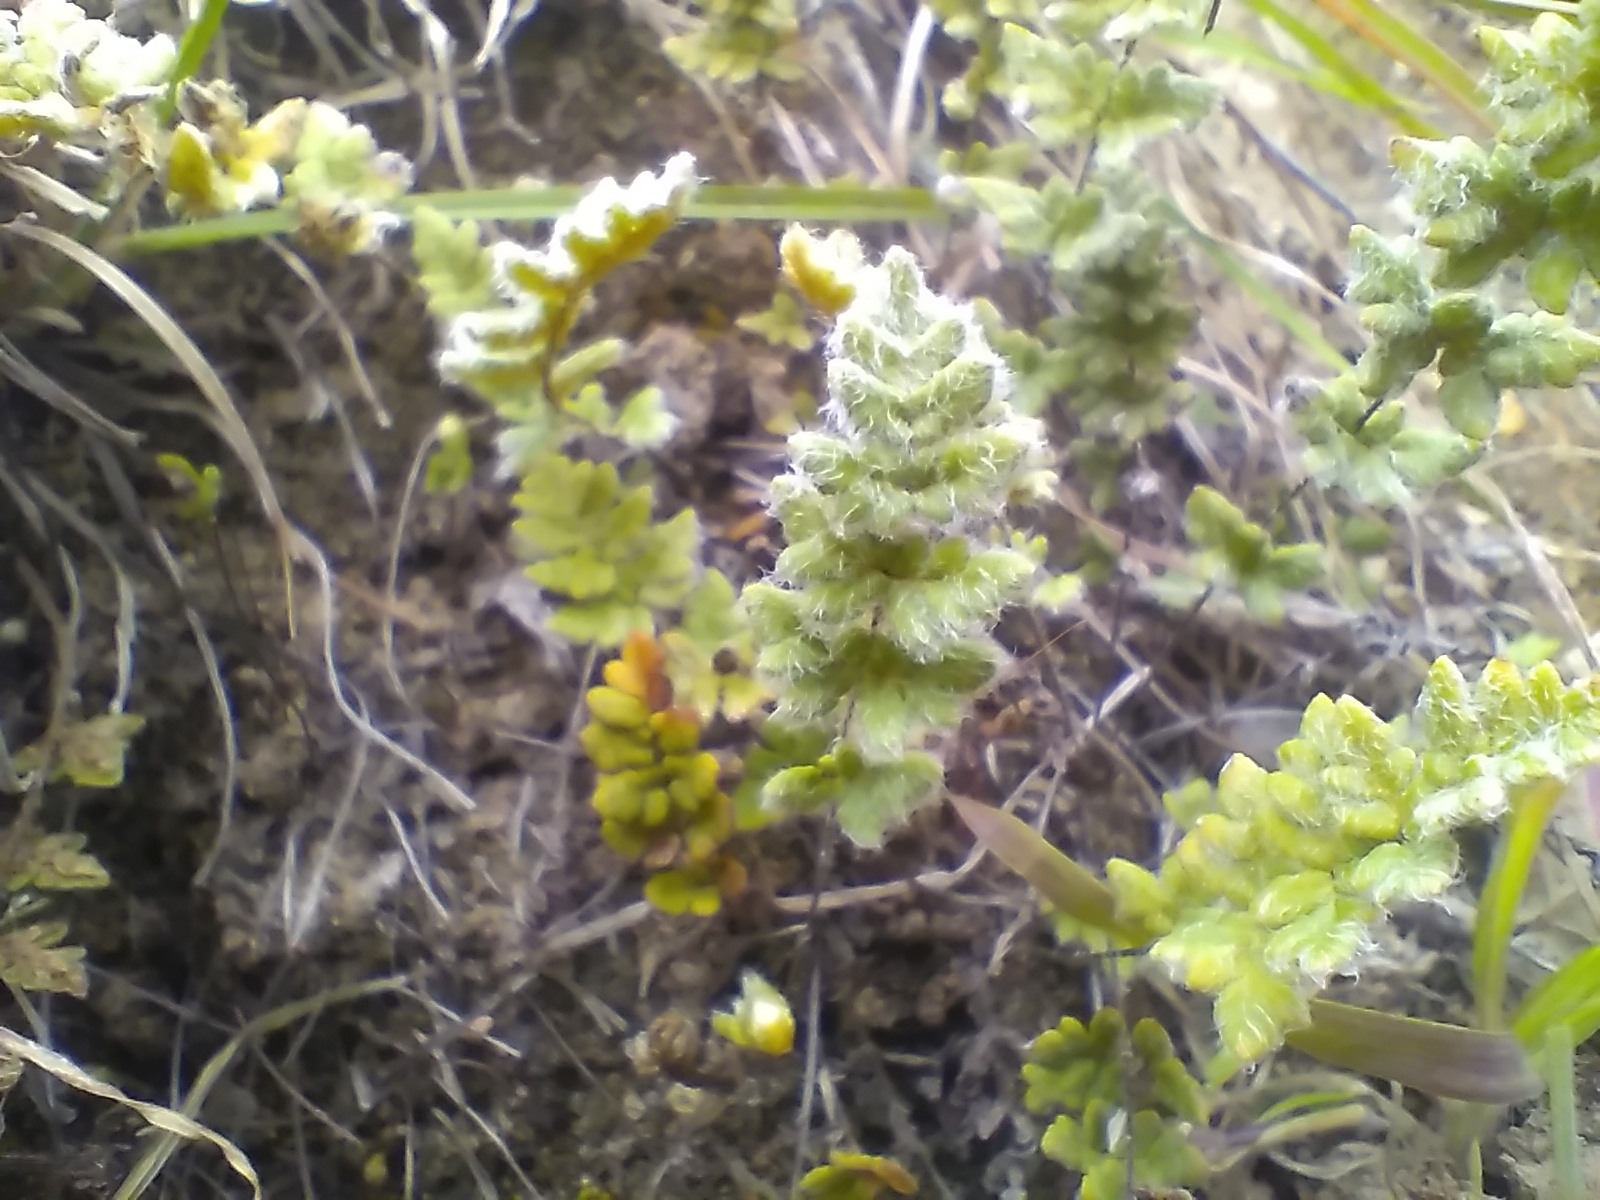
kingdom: Plantae
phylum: Tracheophyta
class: Polypodiopsida
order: Polypodiales
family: Pteridaceae
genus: Cheilanthes
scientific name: Cheilanthes distans
